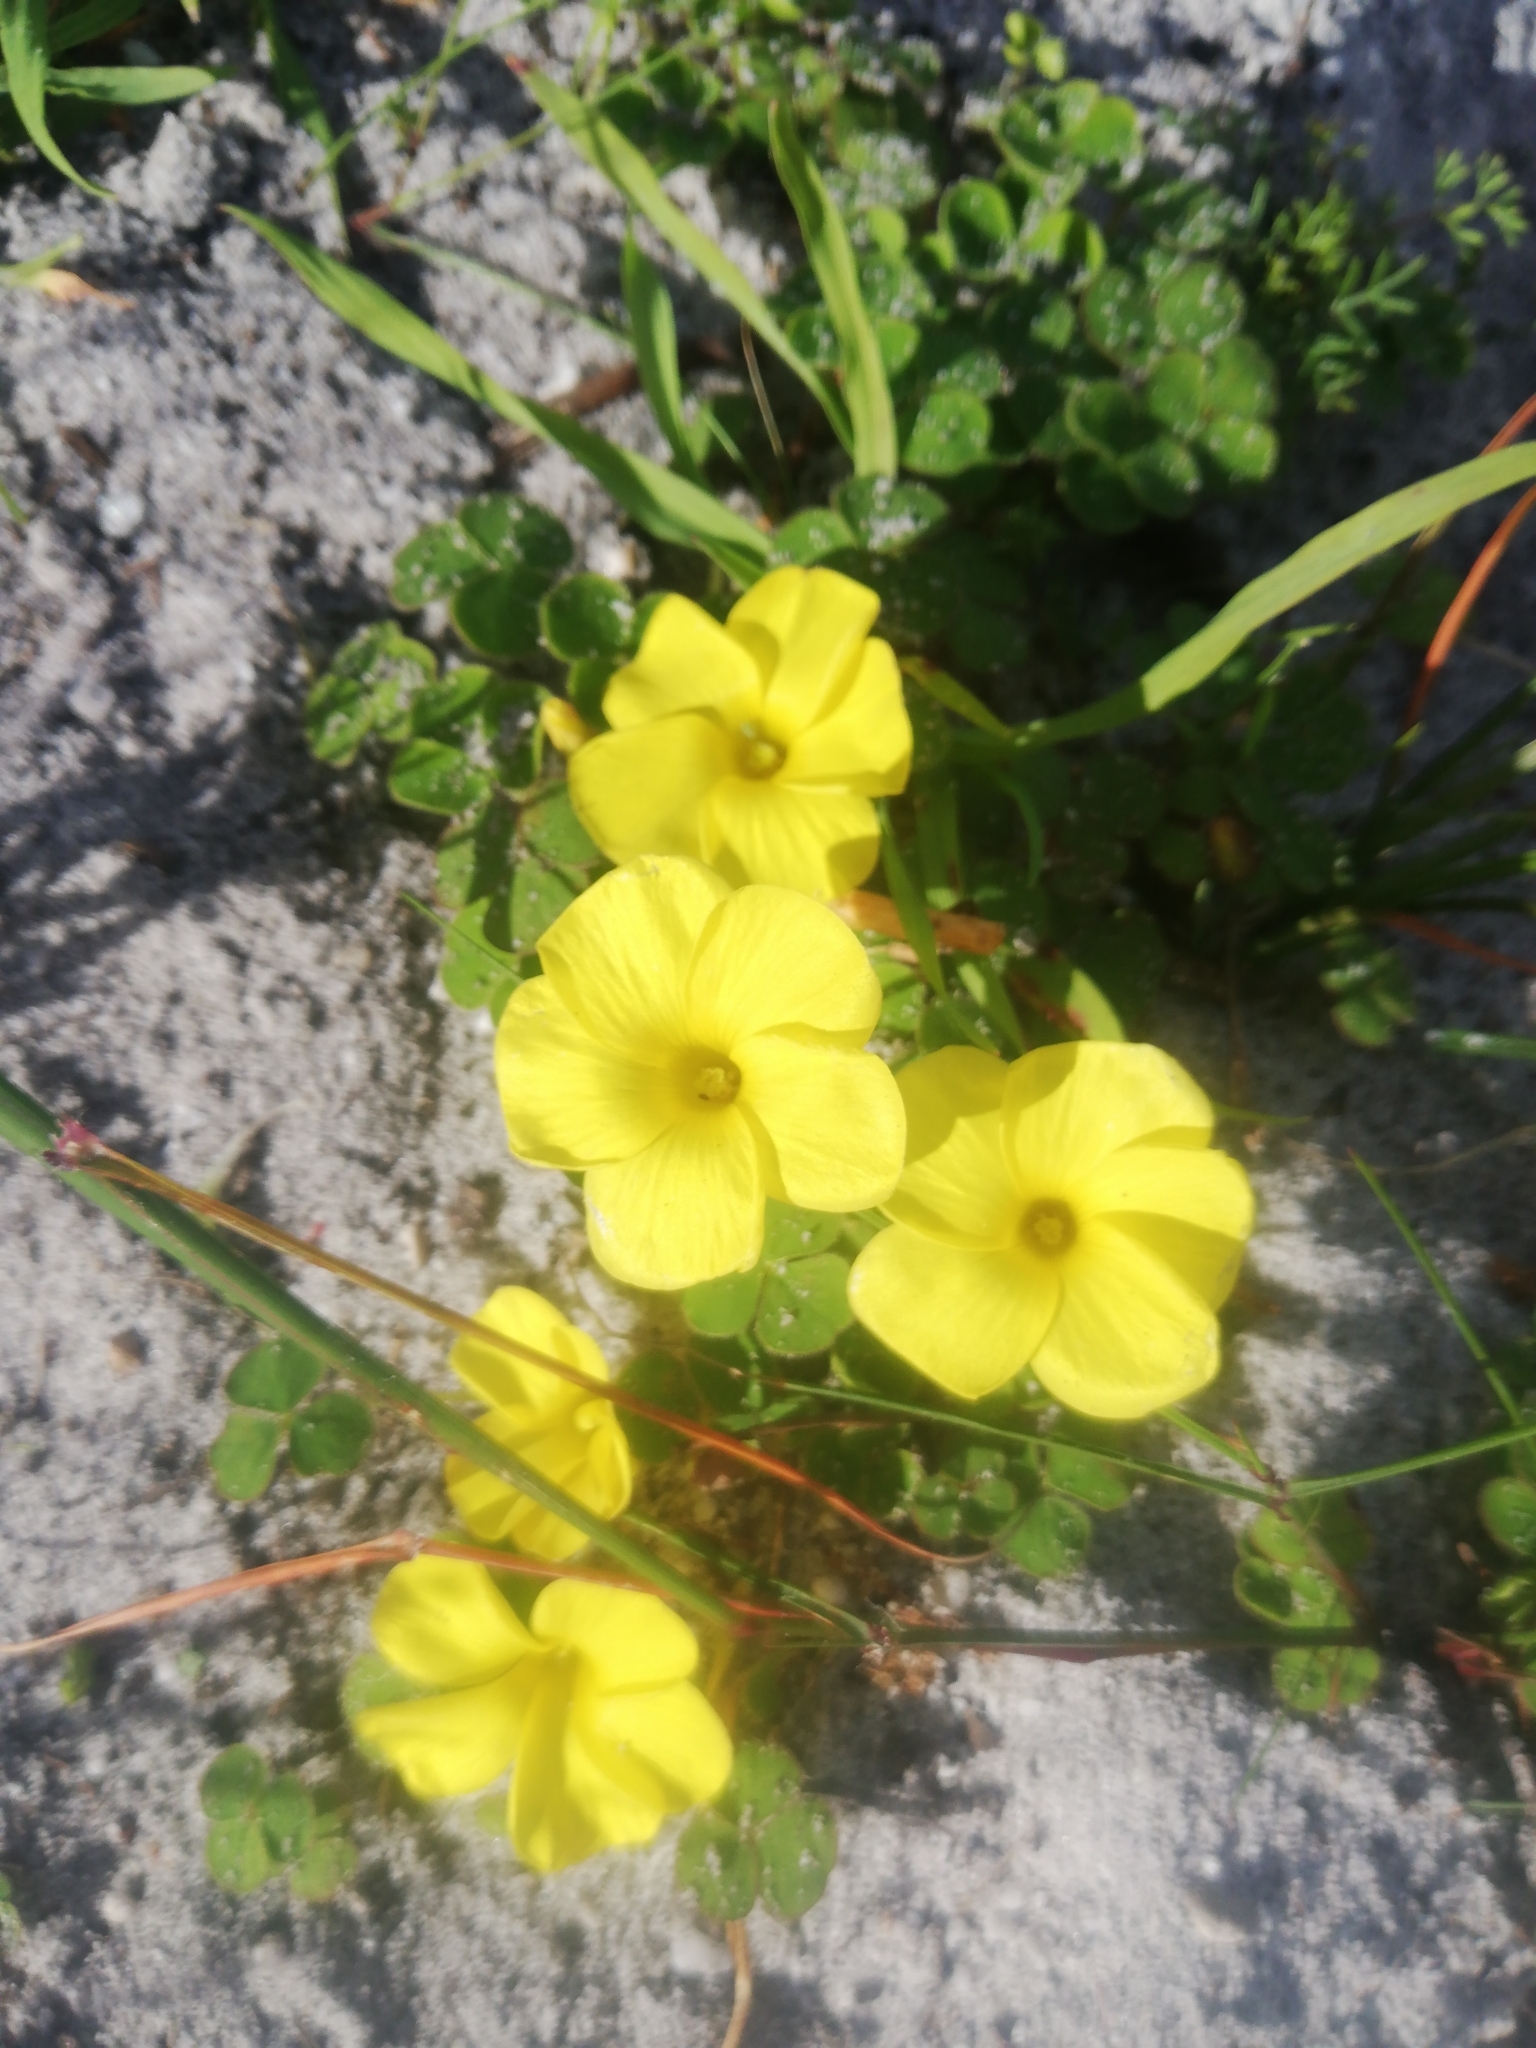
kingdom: Plantae
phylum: Tracheophyta
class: Magnoliopsida
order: Oxalidales
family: Oxalidaceae
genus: Oxalis
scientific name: Oxalis luteola
